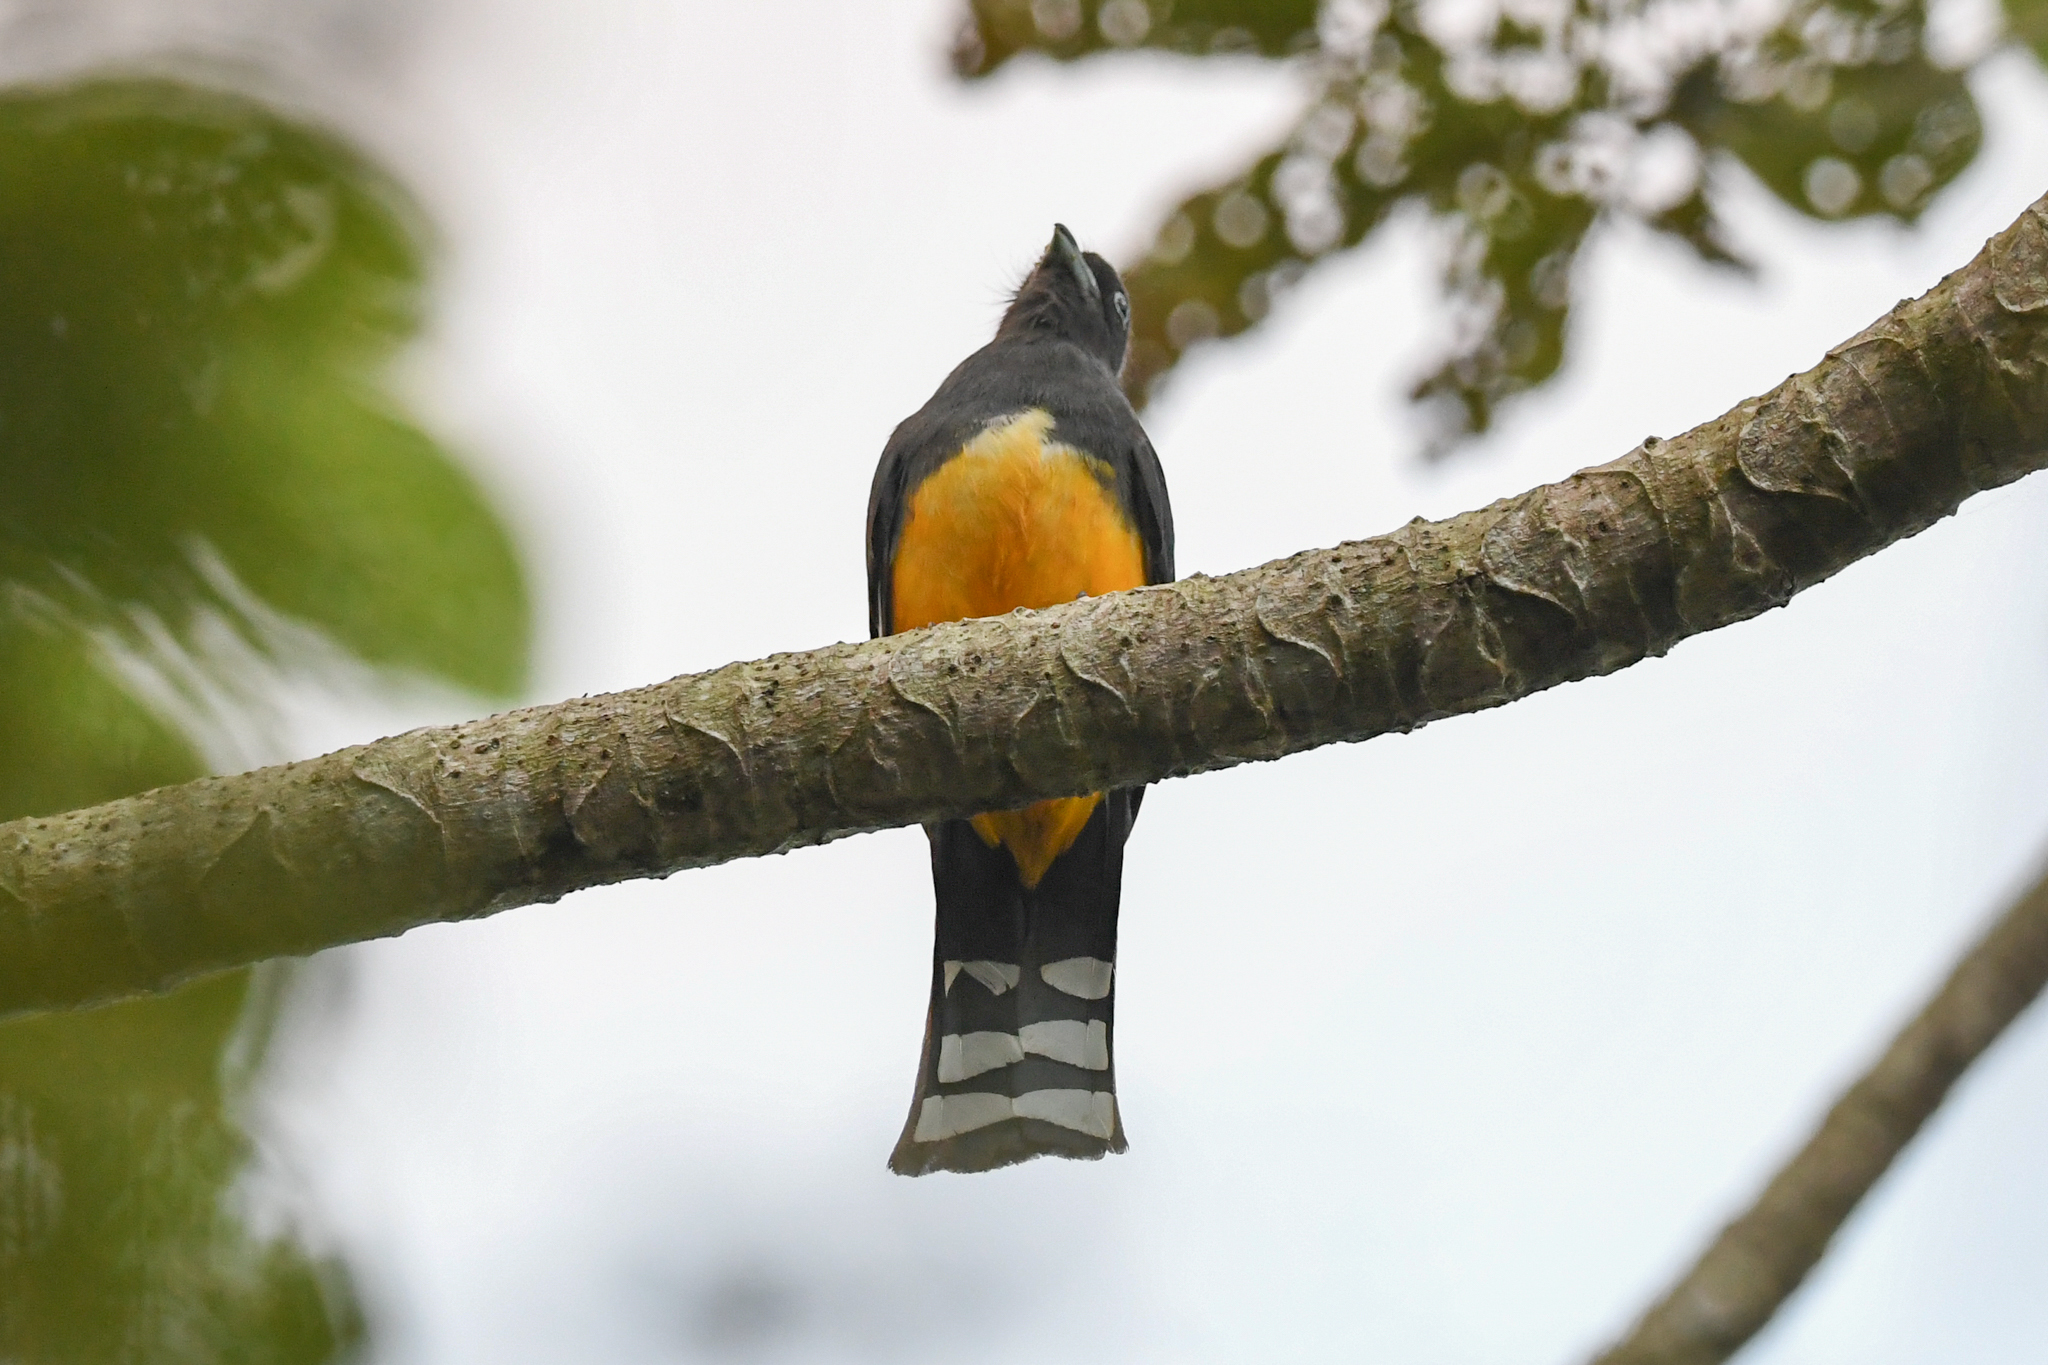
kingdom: Animalia
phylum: Chordata
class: Aves
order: Trogoniformes
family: Trogonidae
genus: Trogon
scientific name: Trogon melanocephalus
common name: Black-headed trogon
